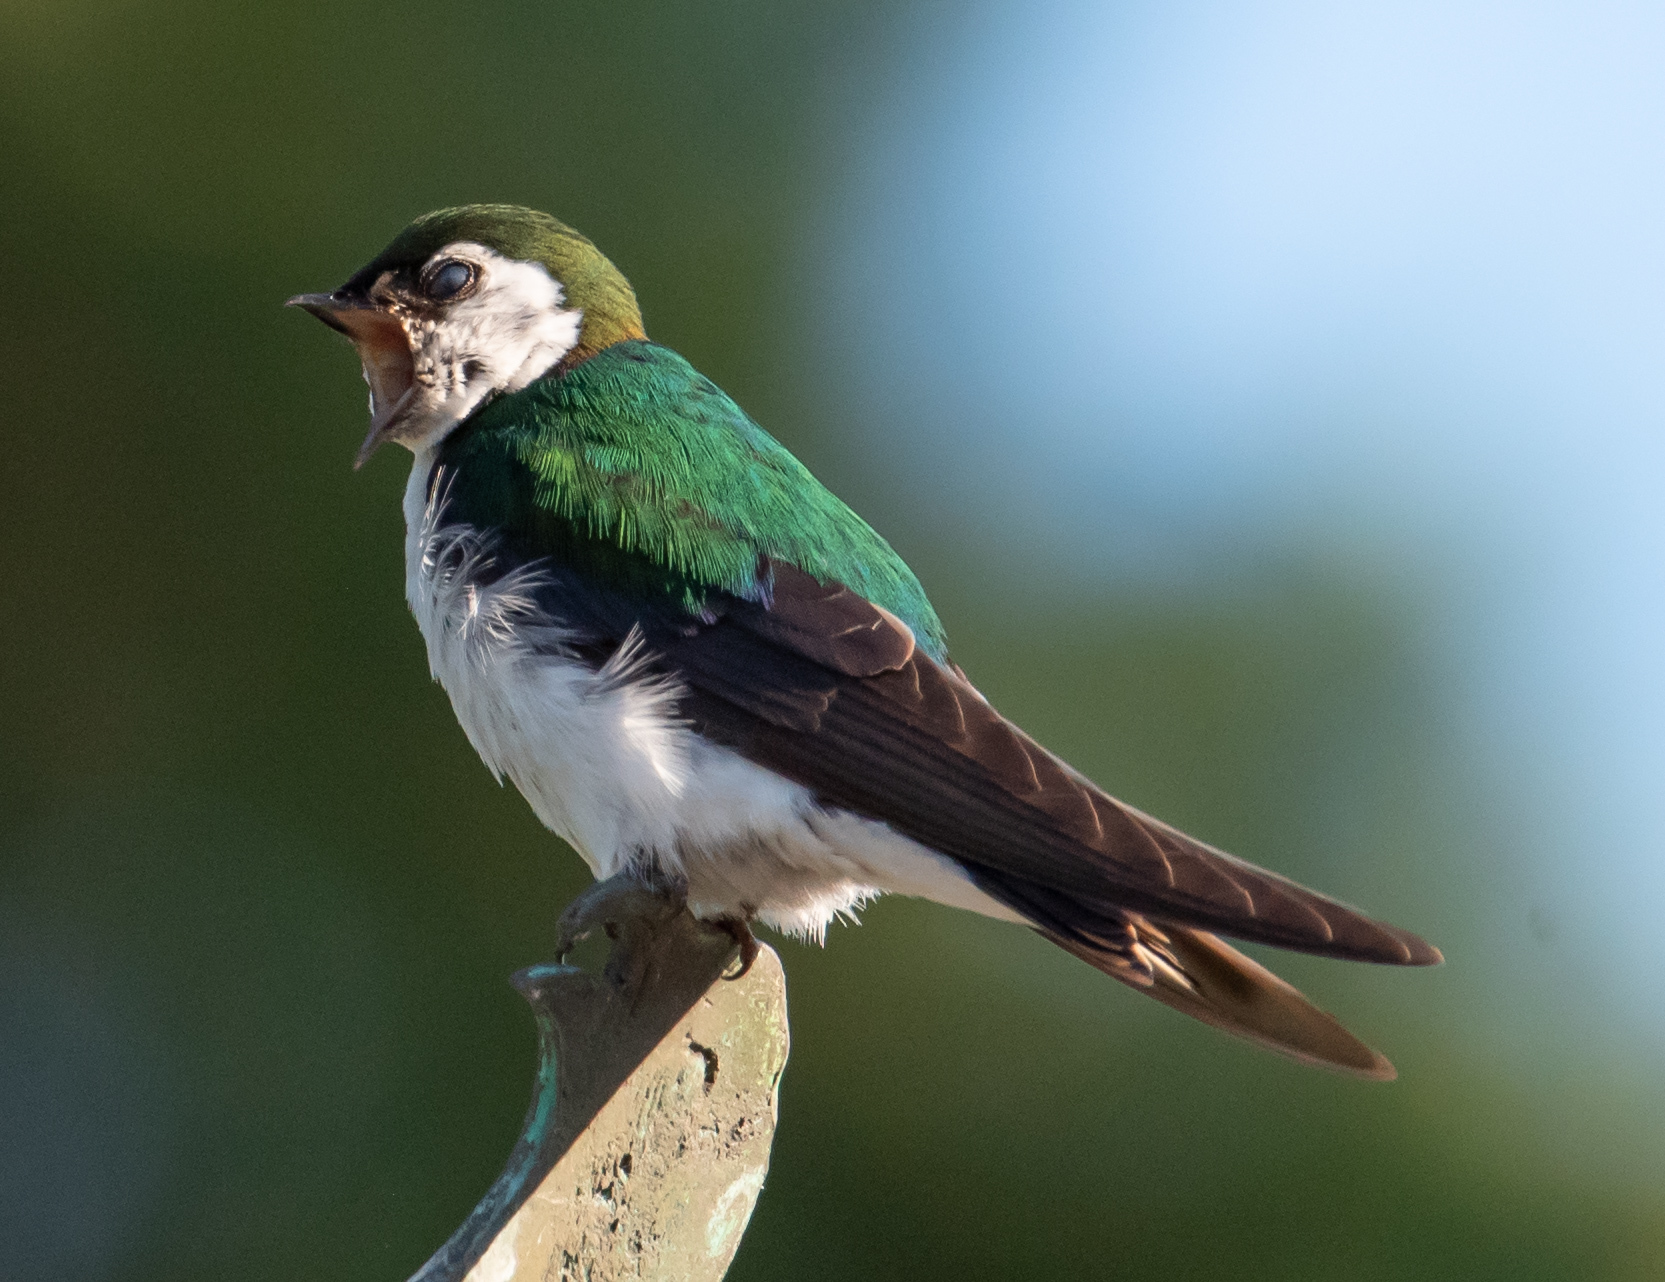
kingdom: Animalia
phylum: Chordata
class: Aves
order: Passeriformes
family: Hirundinidae
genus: Tachycineta
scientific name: Tachycineta thalassina
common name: Violet-green swallow
